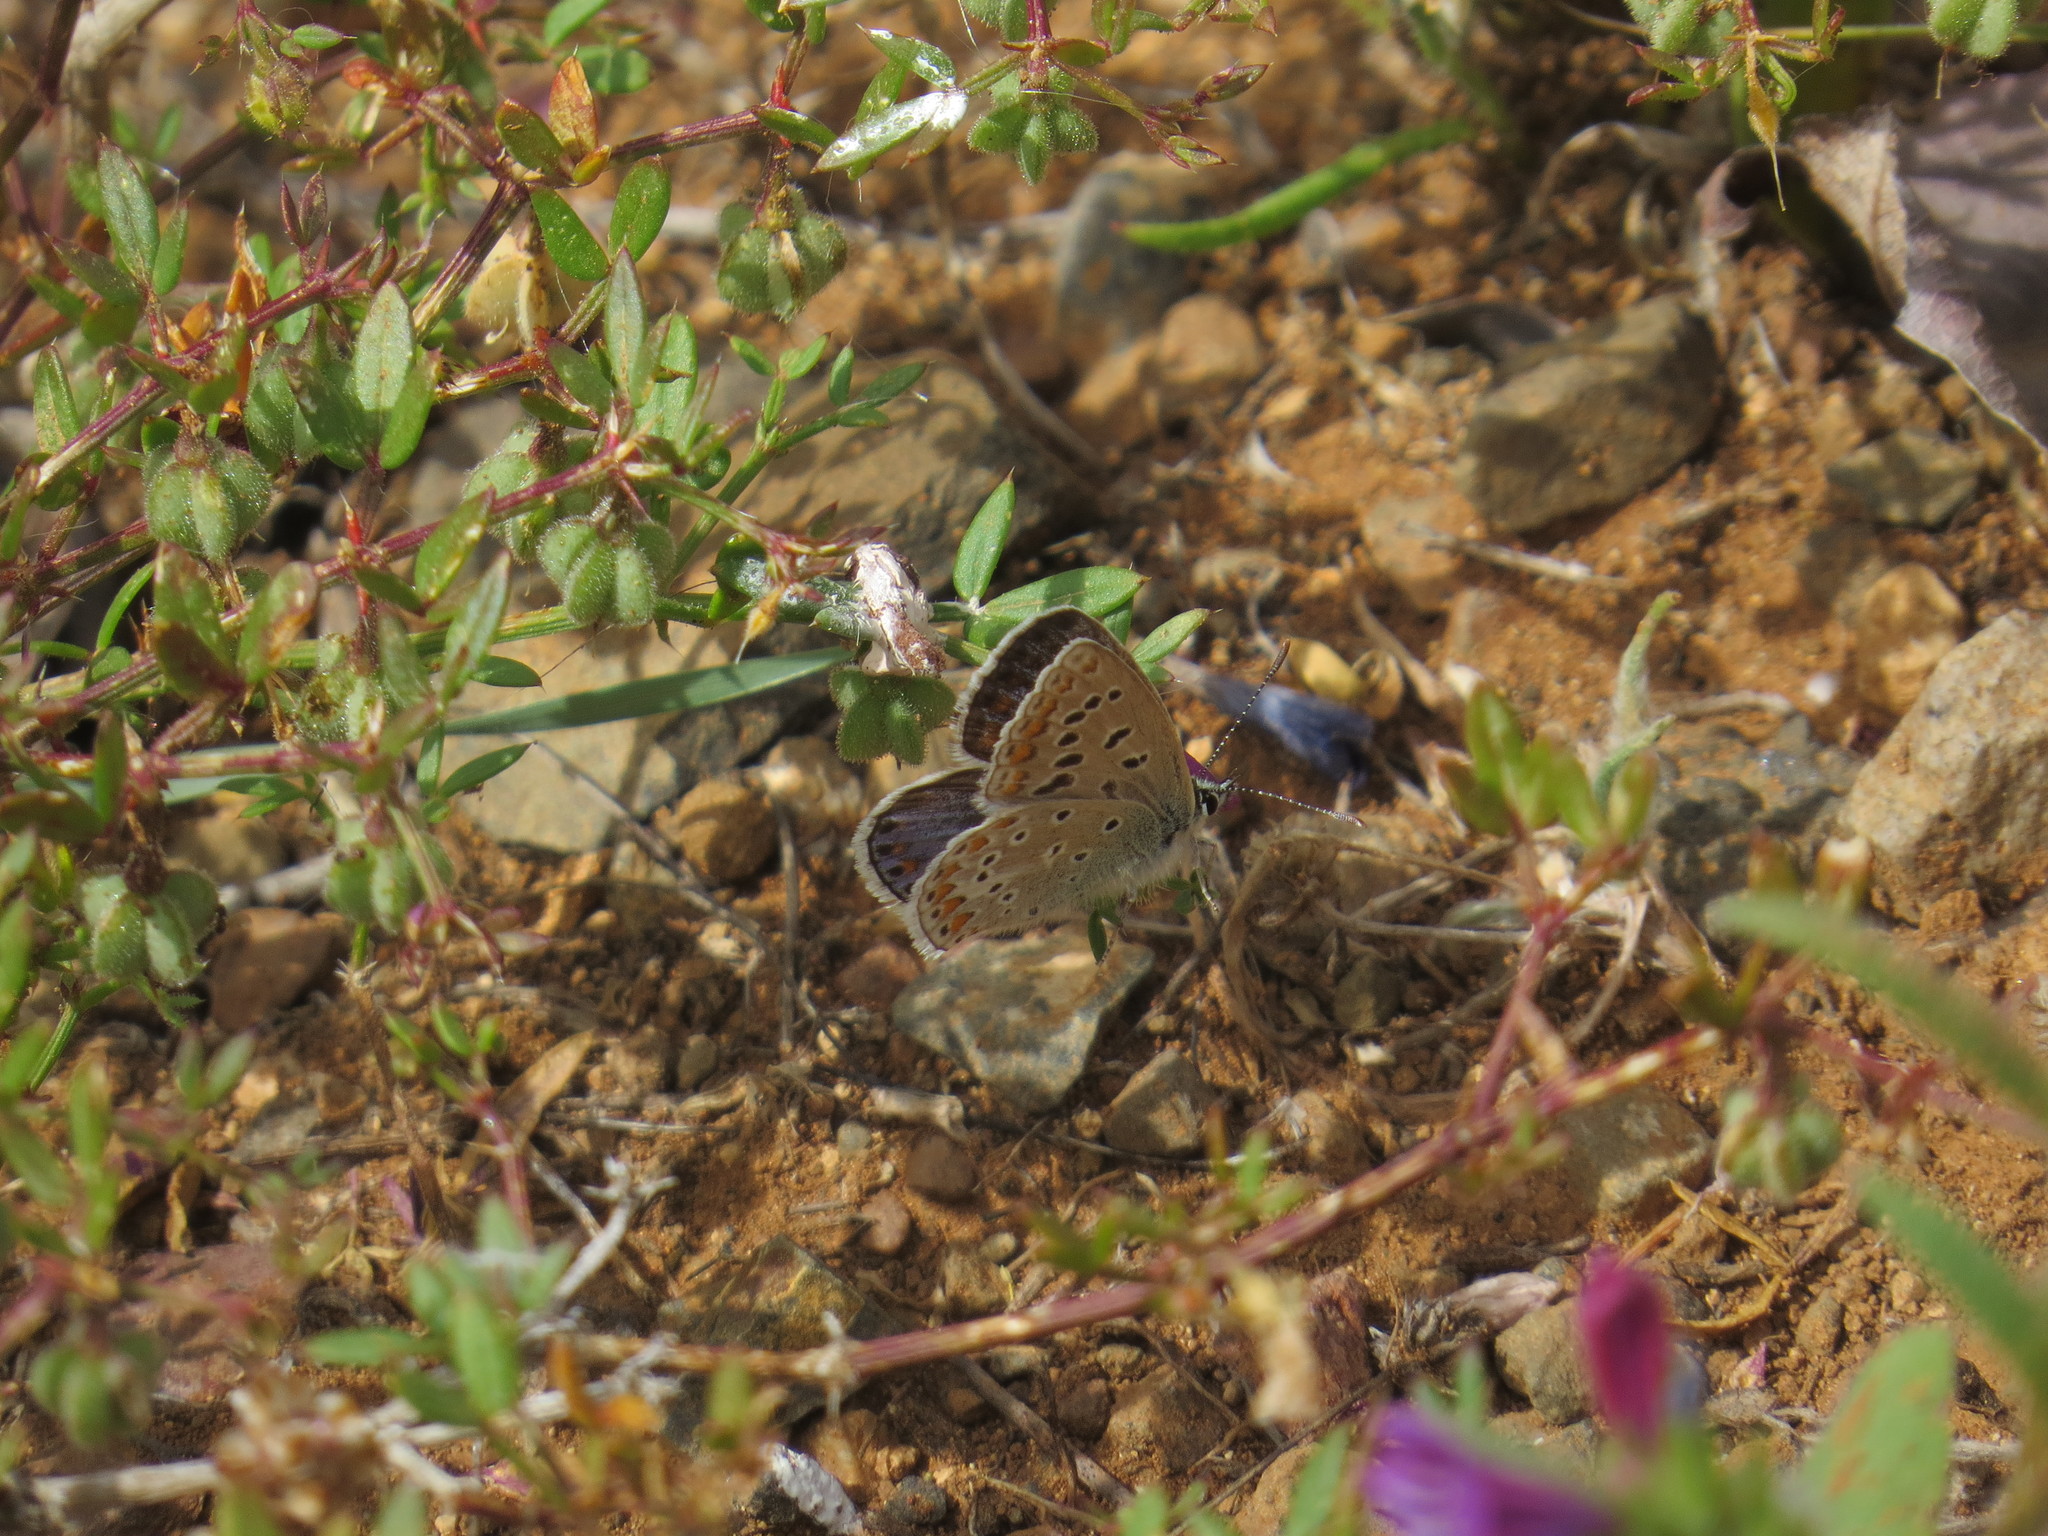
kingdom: Animalia
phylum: Arthropoda
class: Insecta
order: Lepidoptera
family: Lycaenidae
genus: Polyommatus
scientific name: Polyommatus celina
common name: Austaut's blue
